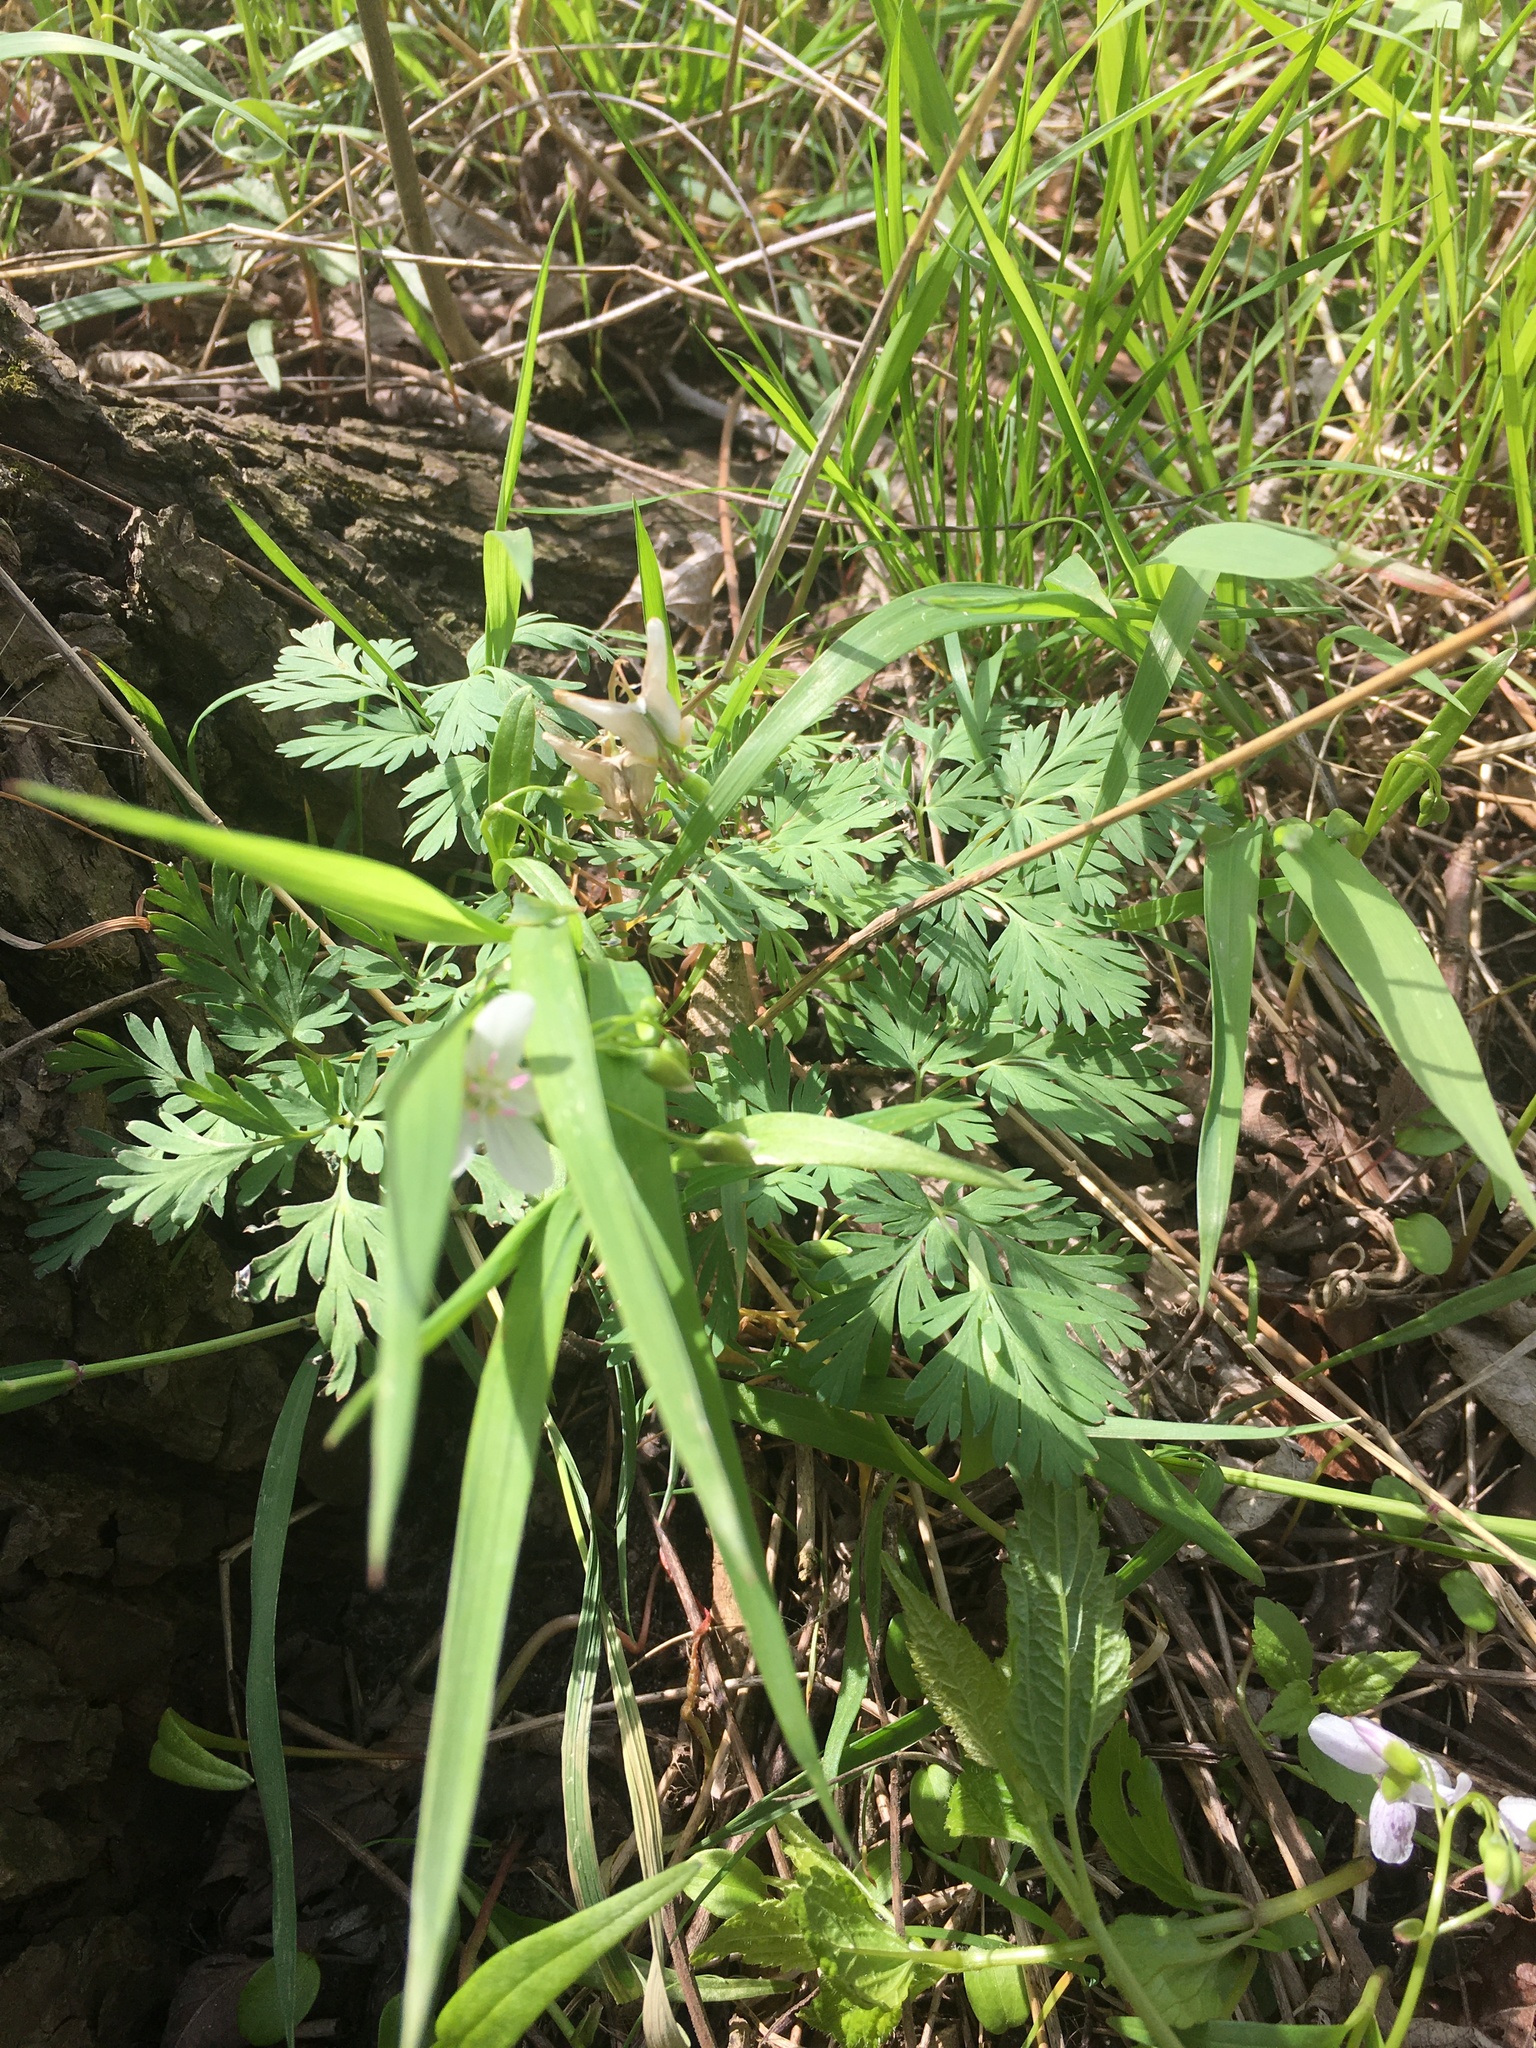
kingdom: Plantae
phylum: Tracheophyta
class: Magnoliopsida
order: Ranunculales
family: Papaveraceae
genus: Dicentra
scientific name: Dicentra cucullaria
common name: Dutchman's breeches
